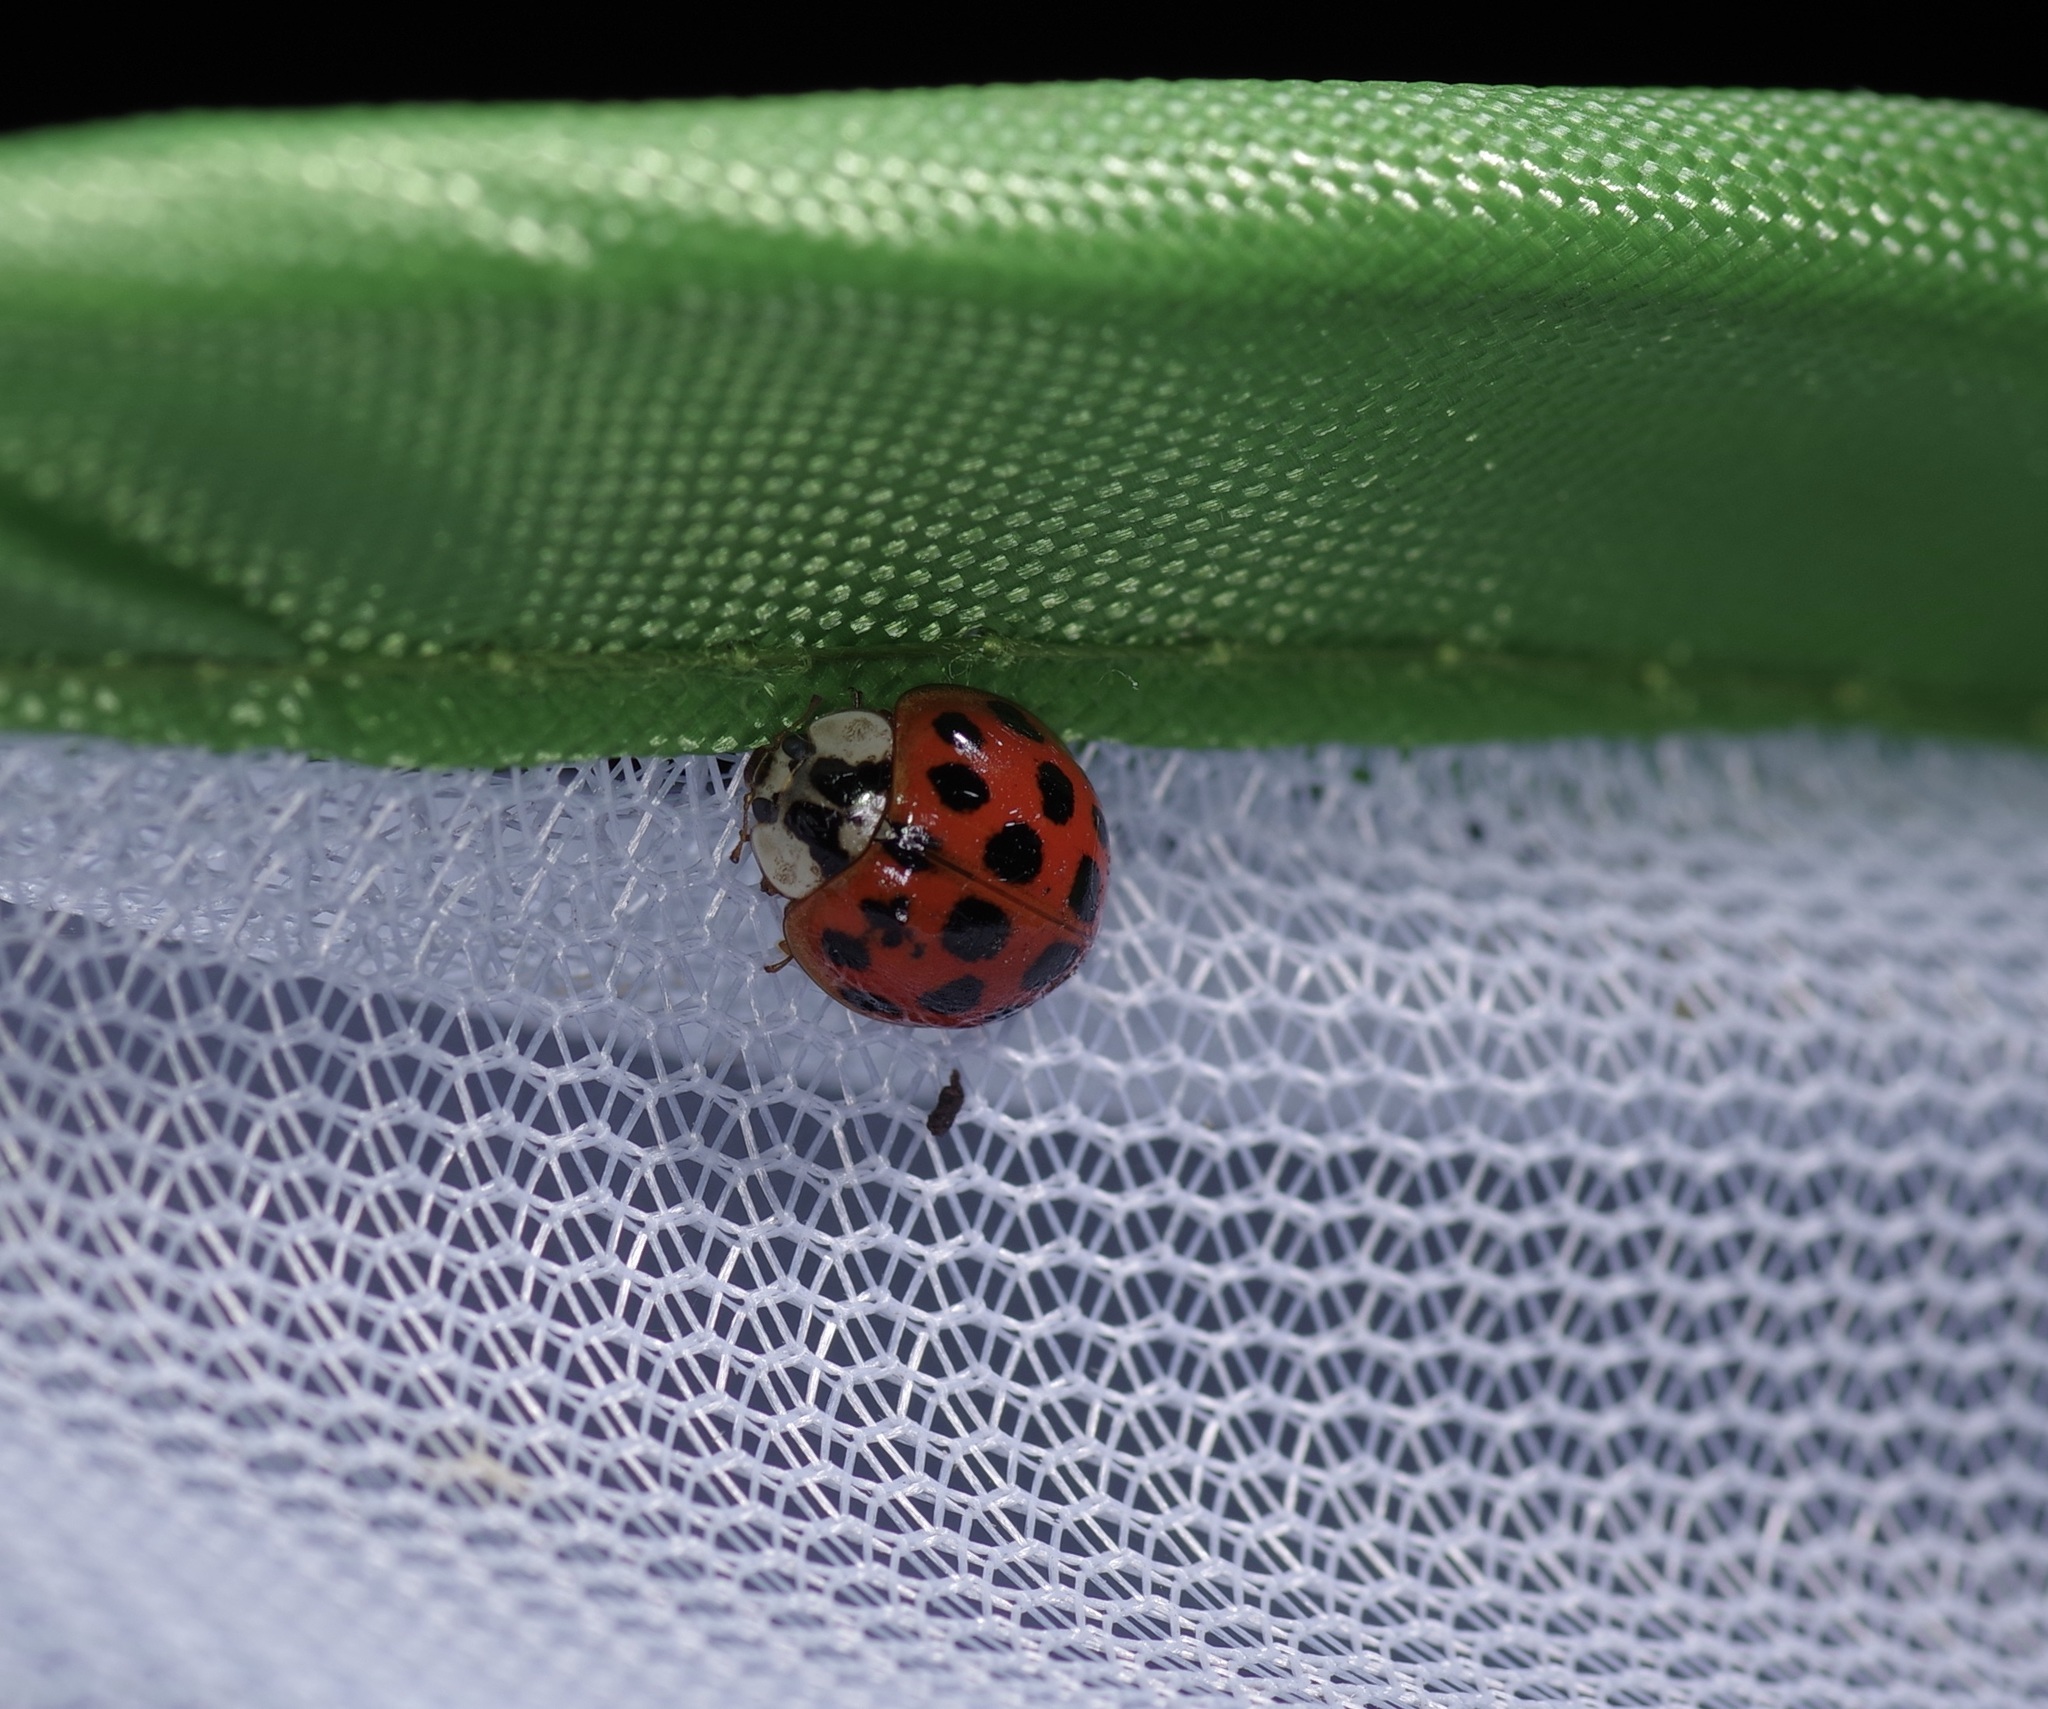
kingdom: Animalia
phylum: Arthropoda
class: Insecta
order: Coleoptera
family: Coccinellidae
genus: Harmonia
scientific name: Harmonia axyridis
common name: Harlequin ladybird
